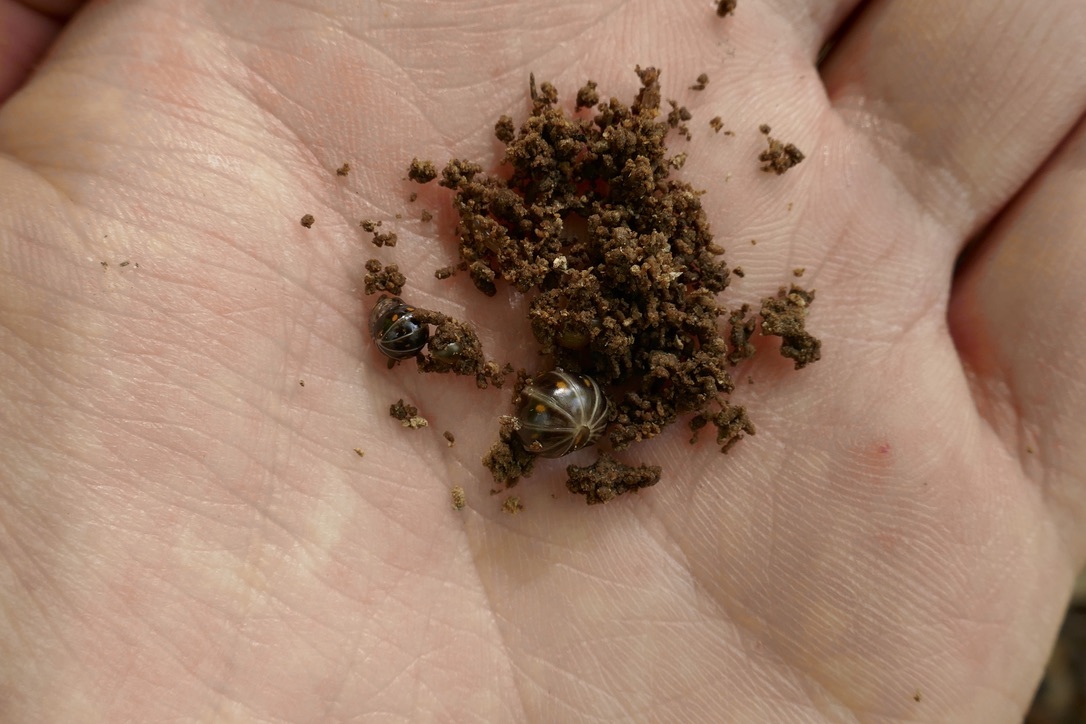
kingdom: Animalia
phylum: Arthropoda
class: Diplopoda
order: Glomerida
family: Glomeridae
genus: Glomeris
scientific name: Glomeris pustulata
